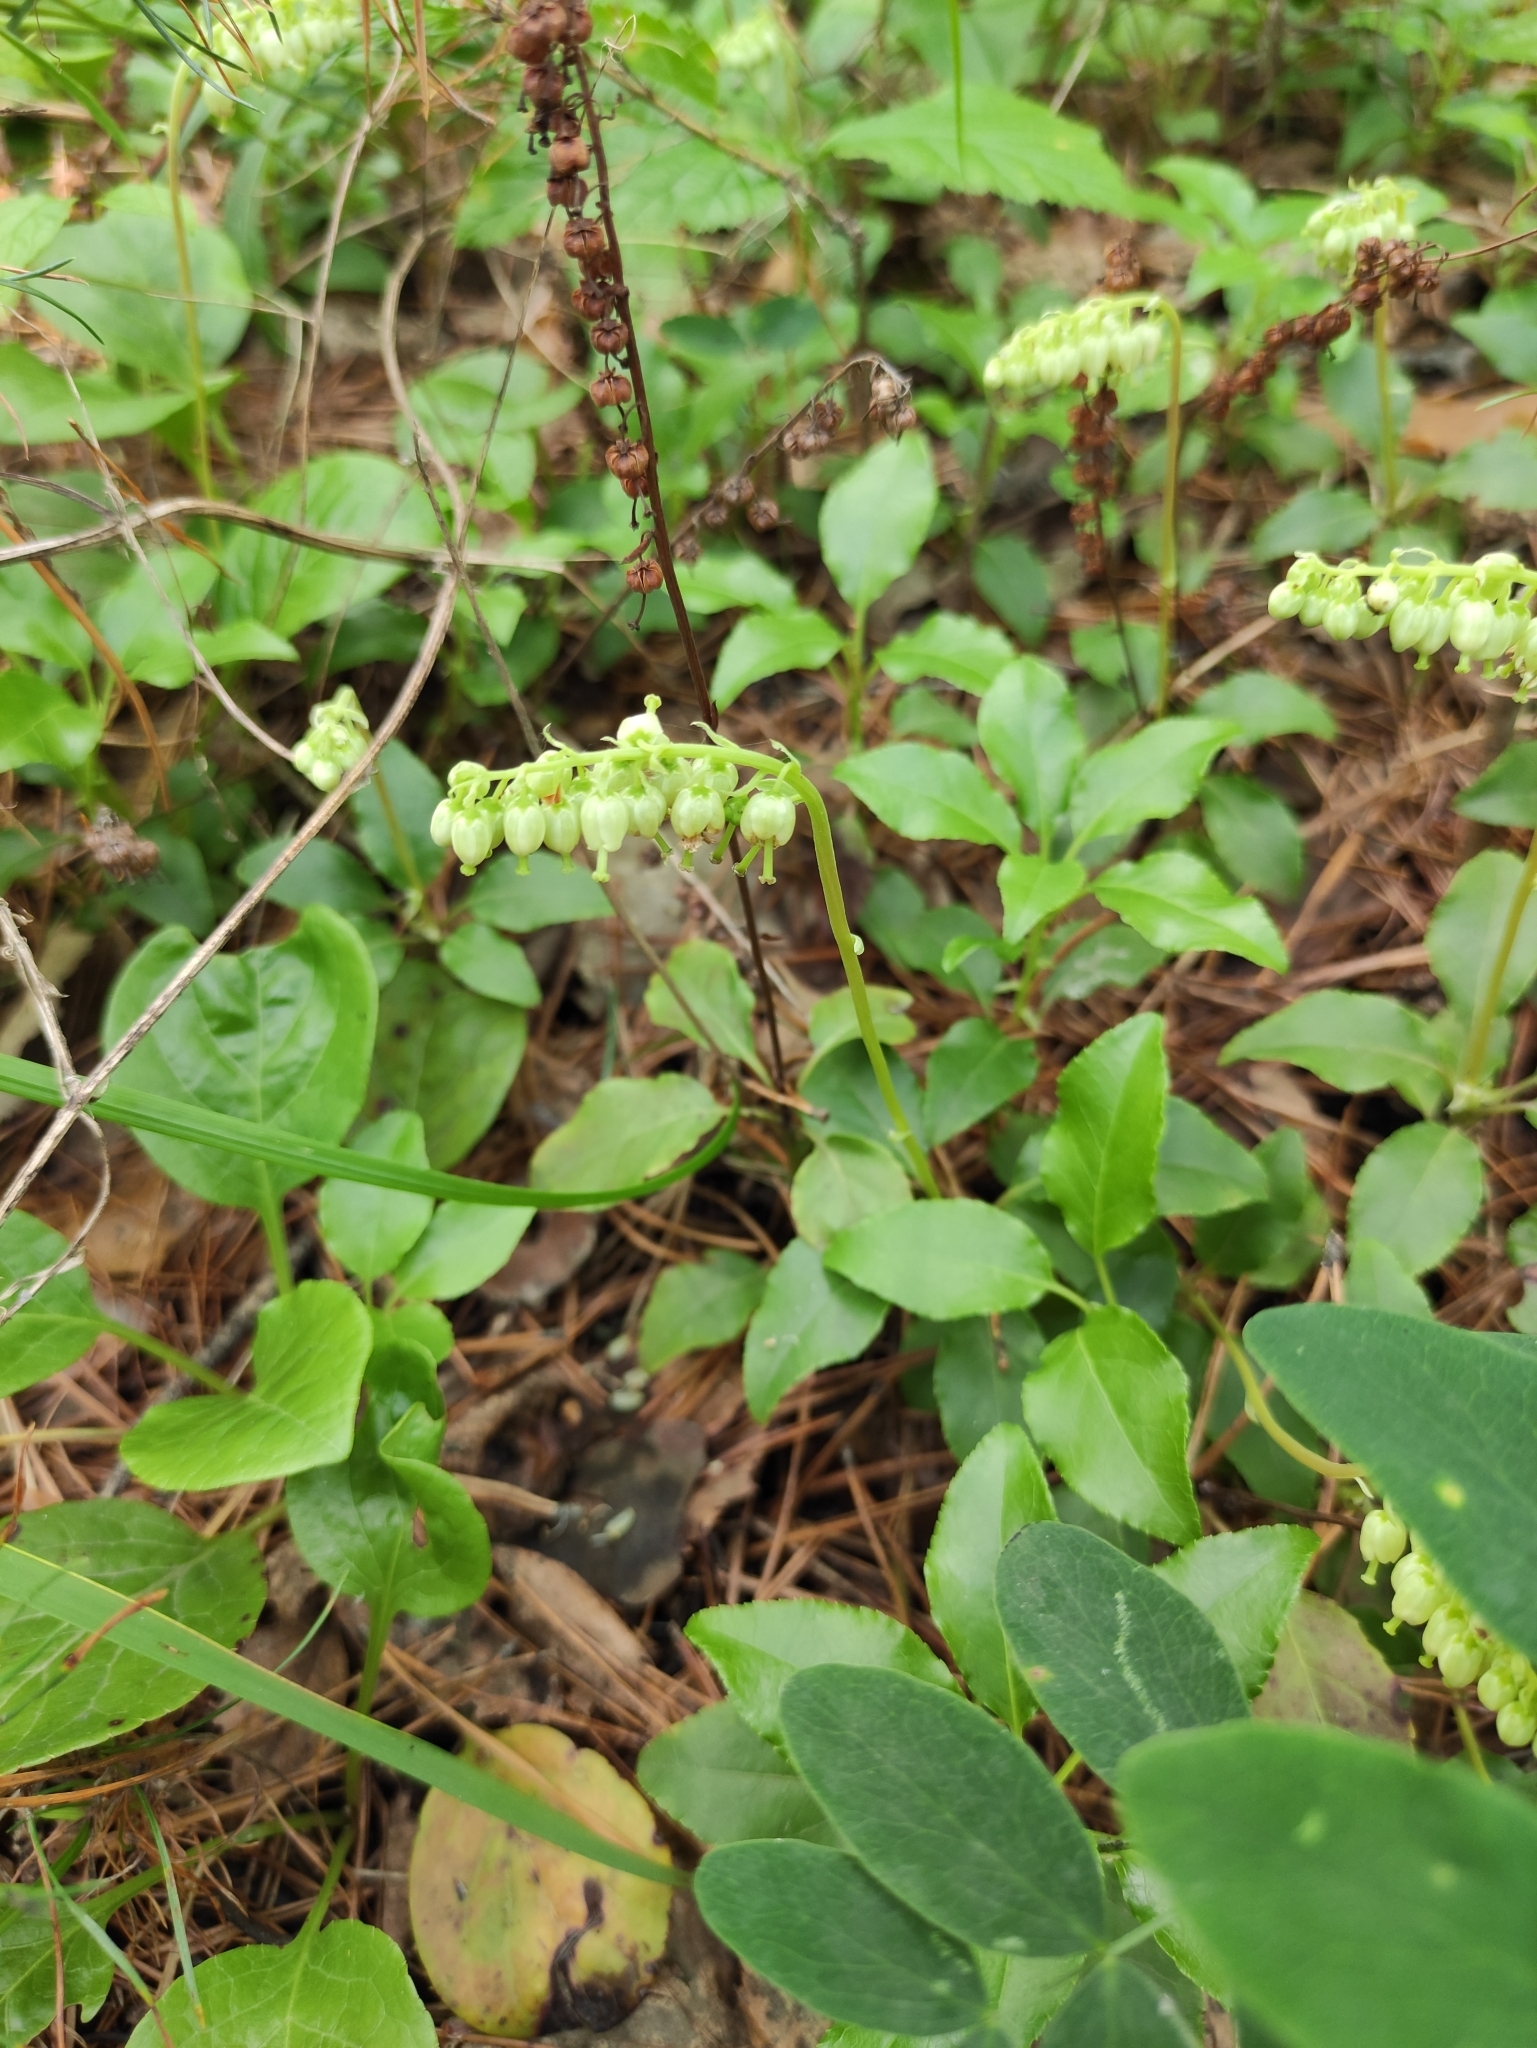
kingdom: Plantae
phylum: Tracheophyta
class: Magnoliopsida
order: Ericales
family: Ericaceae
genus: Orthilia
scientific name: Orthilia secunda
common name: One-sided orthilia
